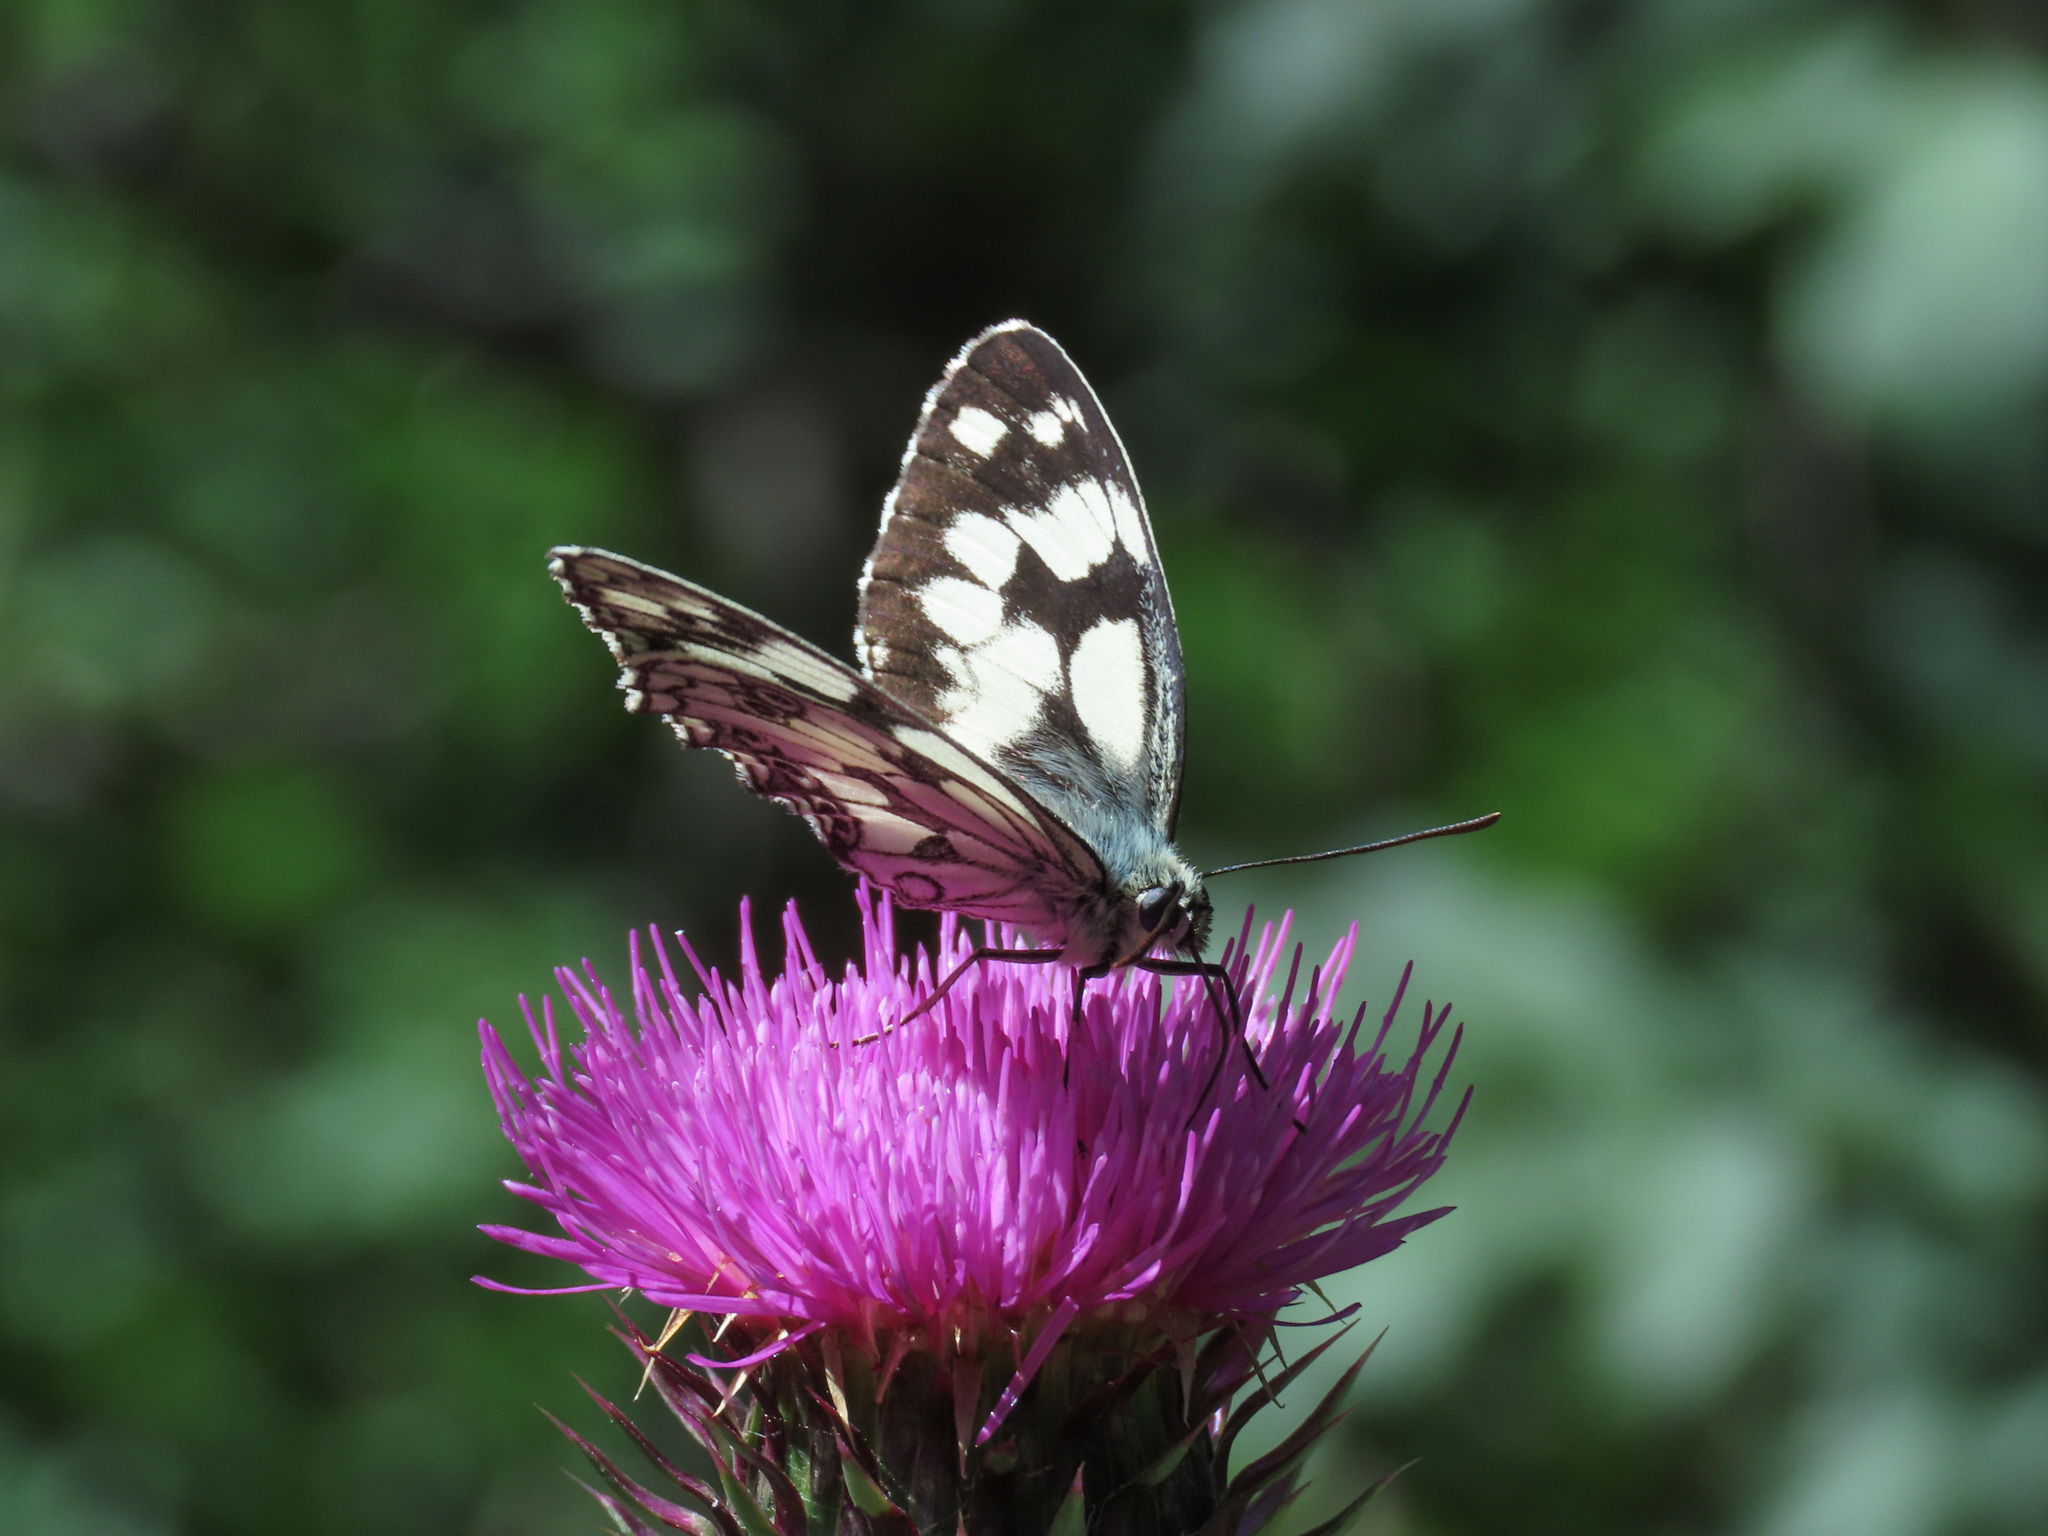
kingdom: Animalia
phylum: Arthropoda
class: Insecta
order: Lepidoptera
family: Nymphalidae
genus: Melanargia
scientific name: Melanargia galathea
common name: Marbled white
